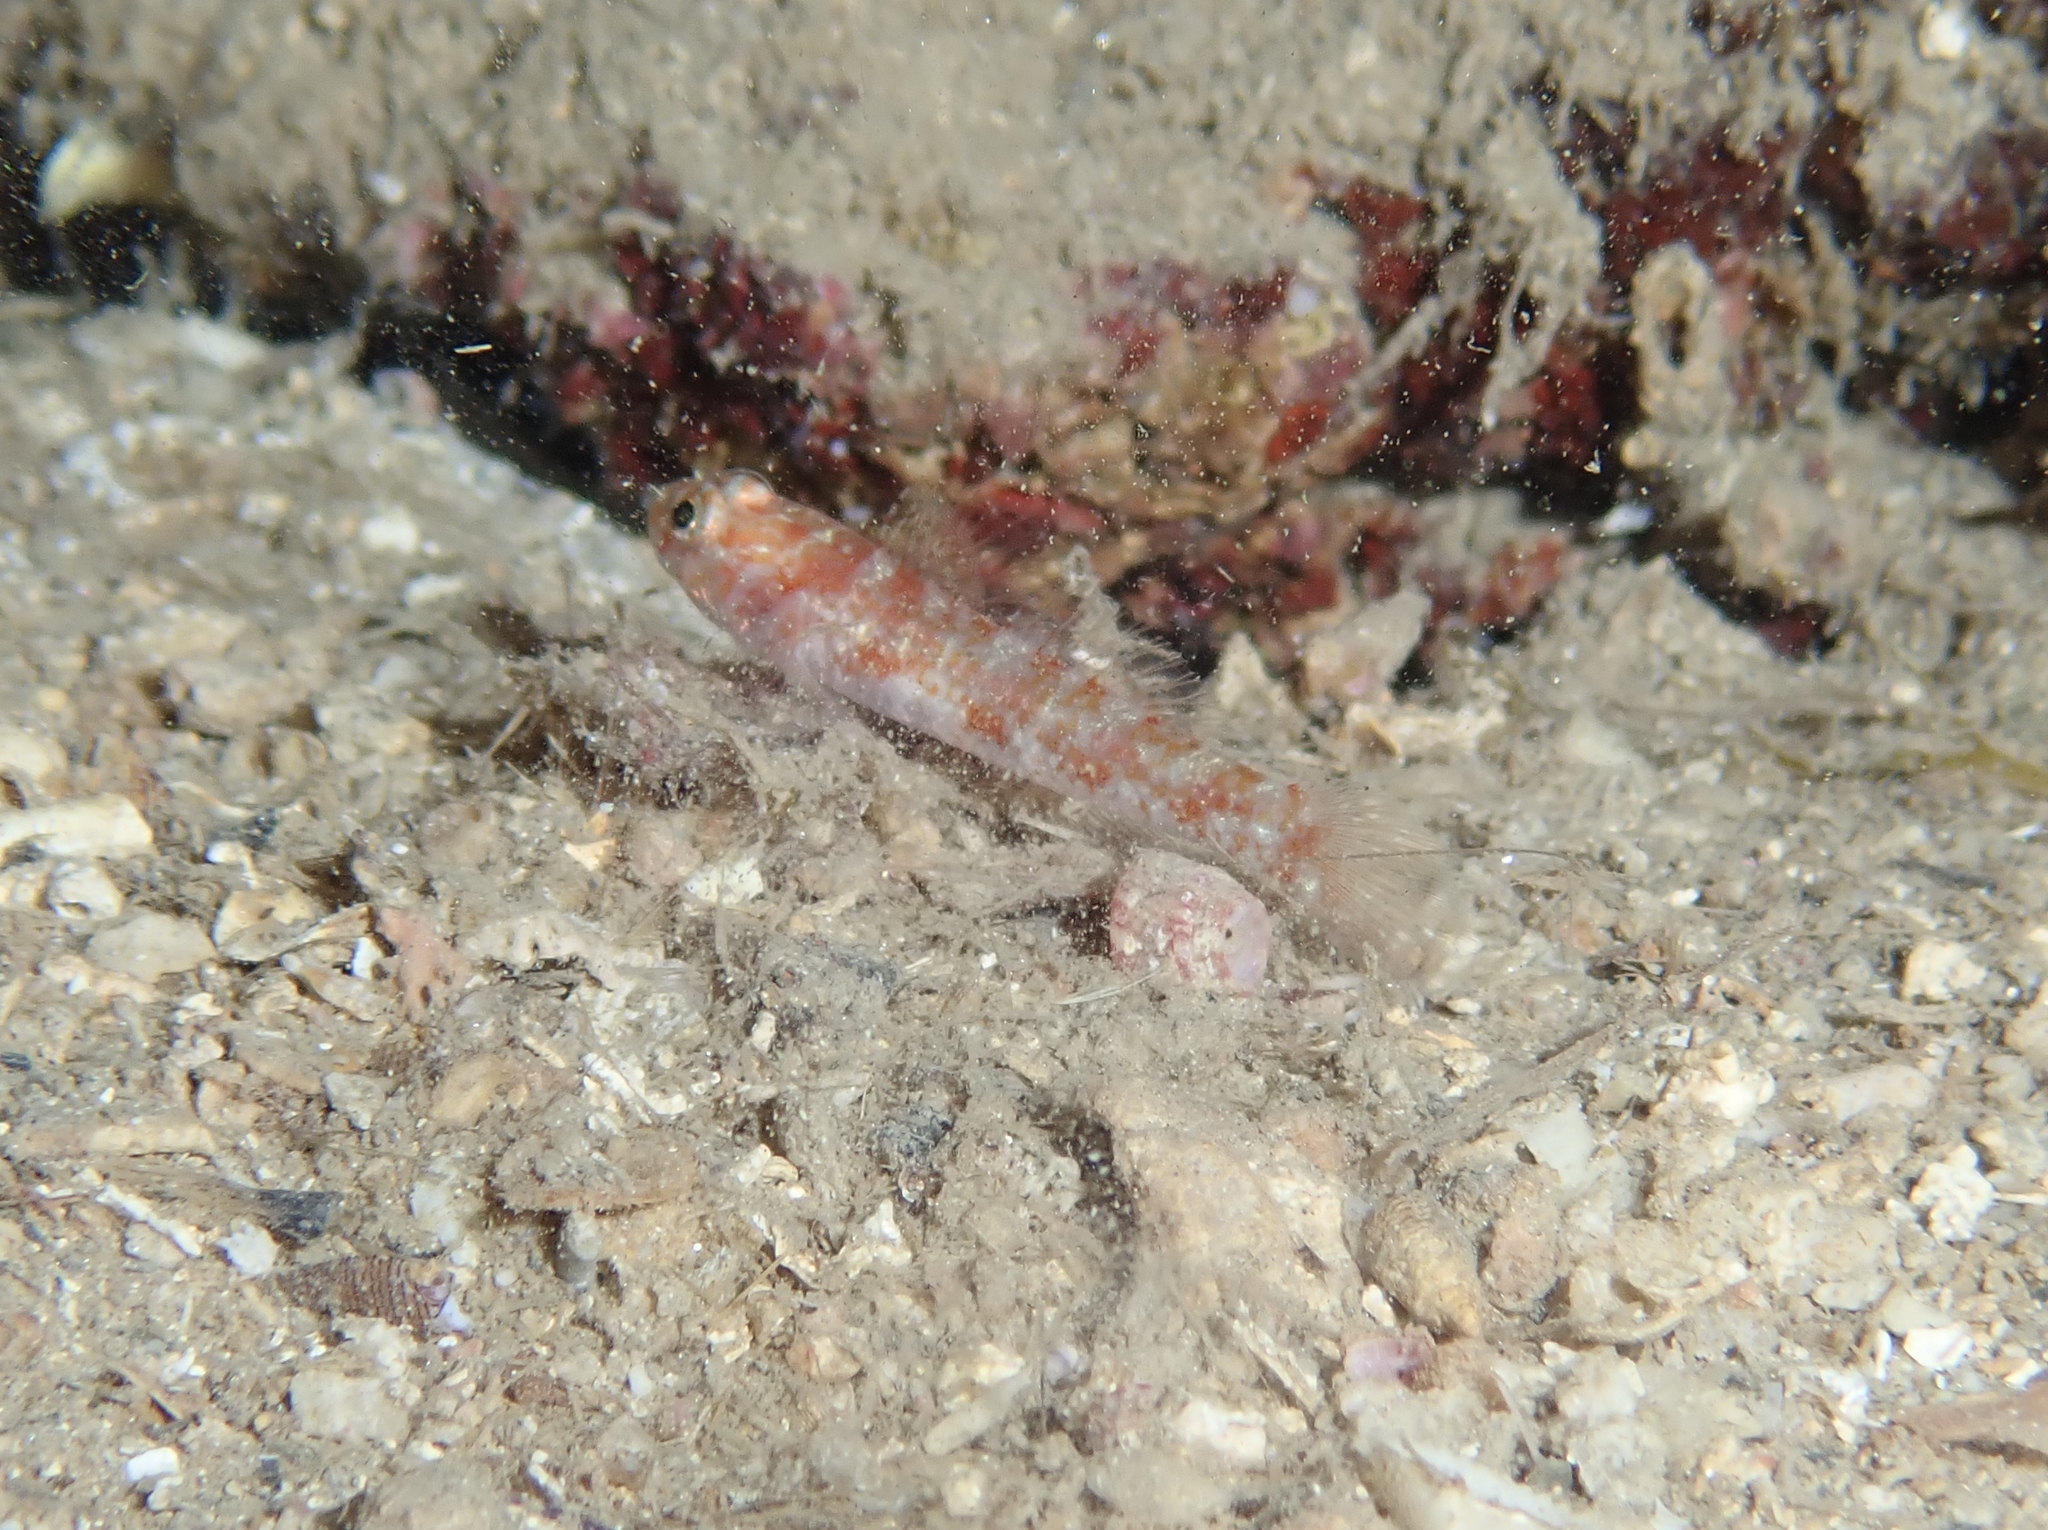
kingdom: Animalia
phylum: Chordata
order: Perciformes
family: Gobiidae
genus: Vanneaugobius
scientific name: Vanneaugobius dollfusi
